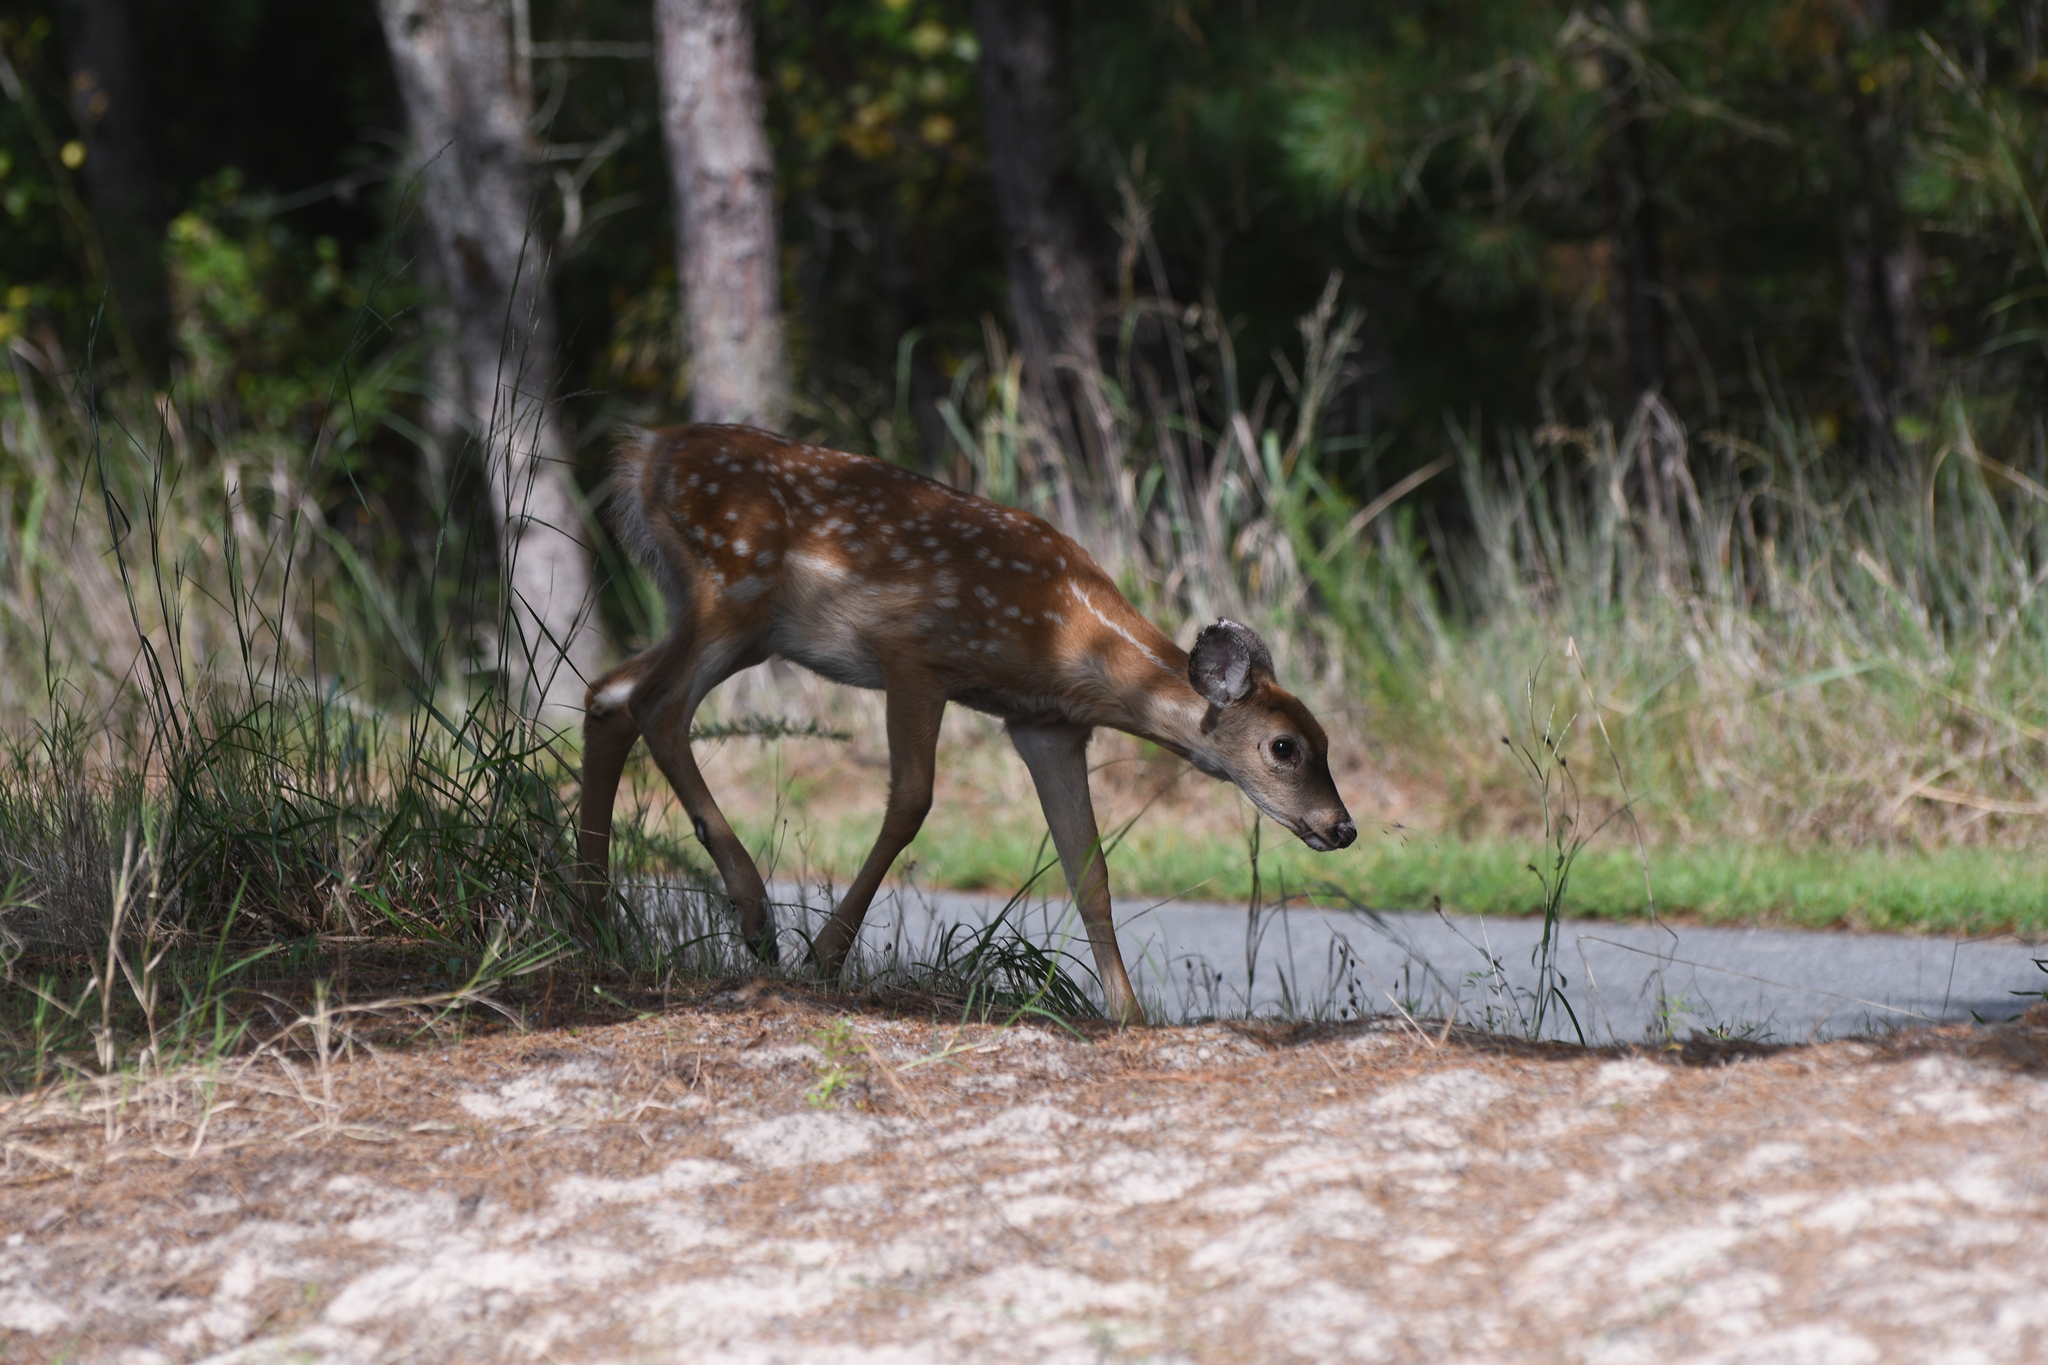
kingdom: Animalia
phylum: Chordata
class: Mammalia
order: Artiodactyla
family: Cervidae
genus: Odocoileus
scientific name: Odocoileus virginianus
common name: White-tailed deer
